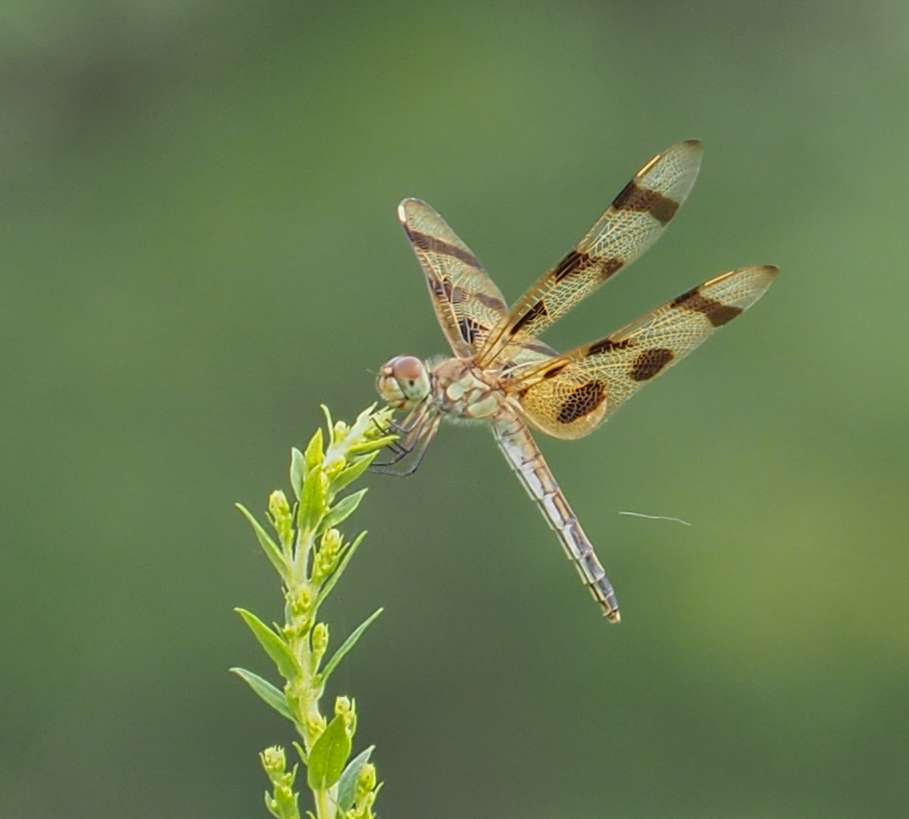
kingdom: Animalia
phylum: Arthropoda
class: Insecta
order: Odonata
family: Libellulidae
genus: Celithemis
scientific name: Celithemis eponina
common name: Halloween pennant
